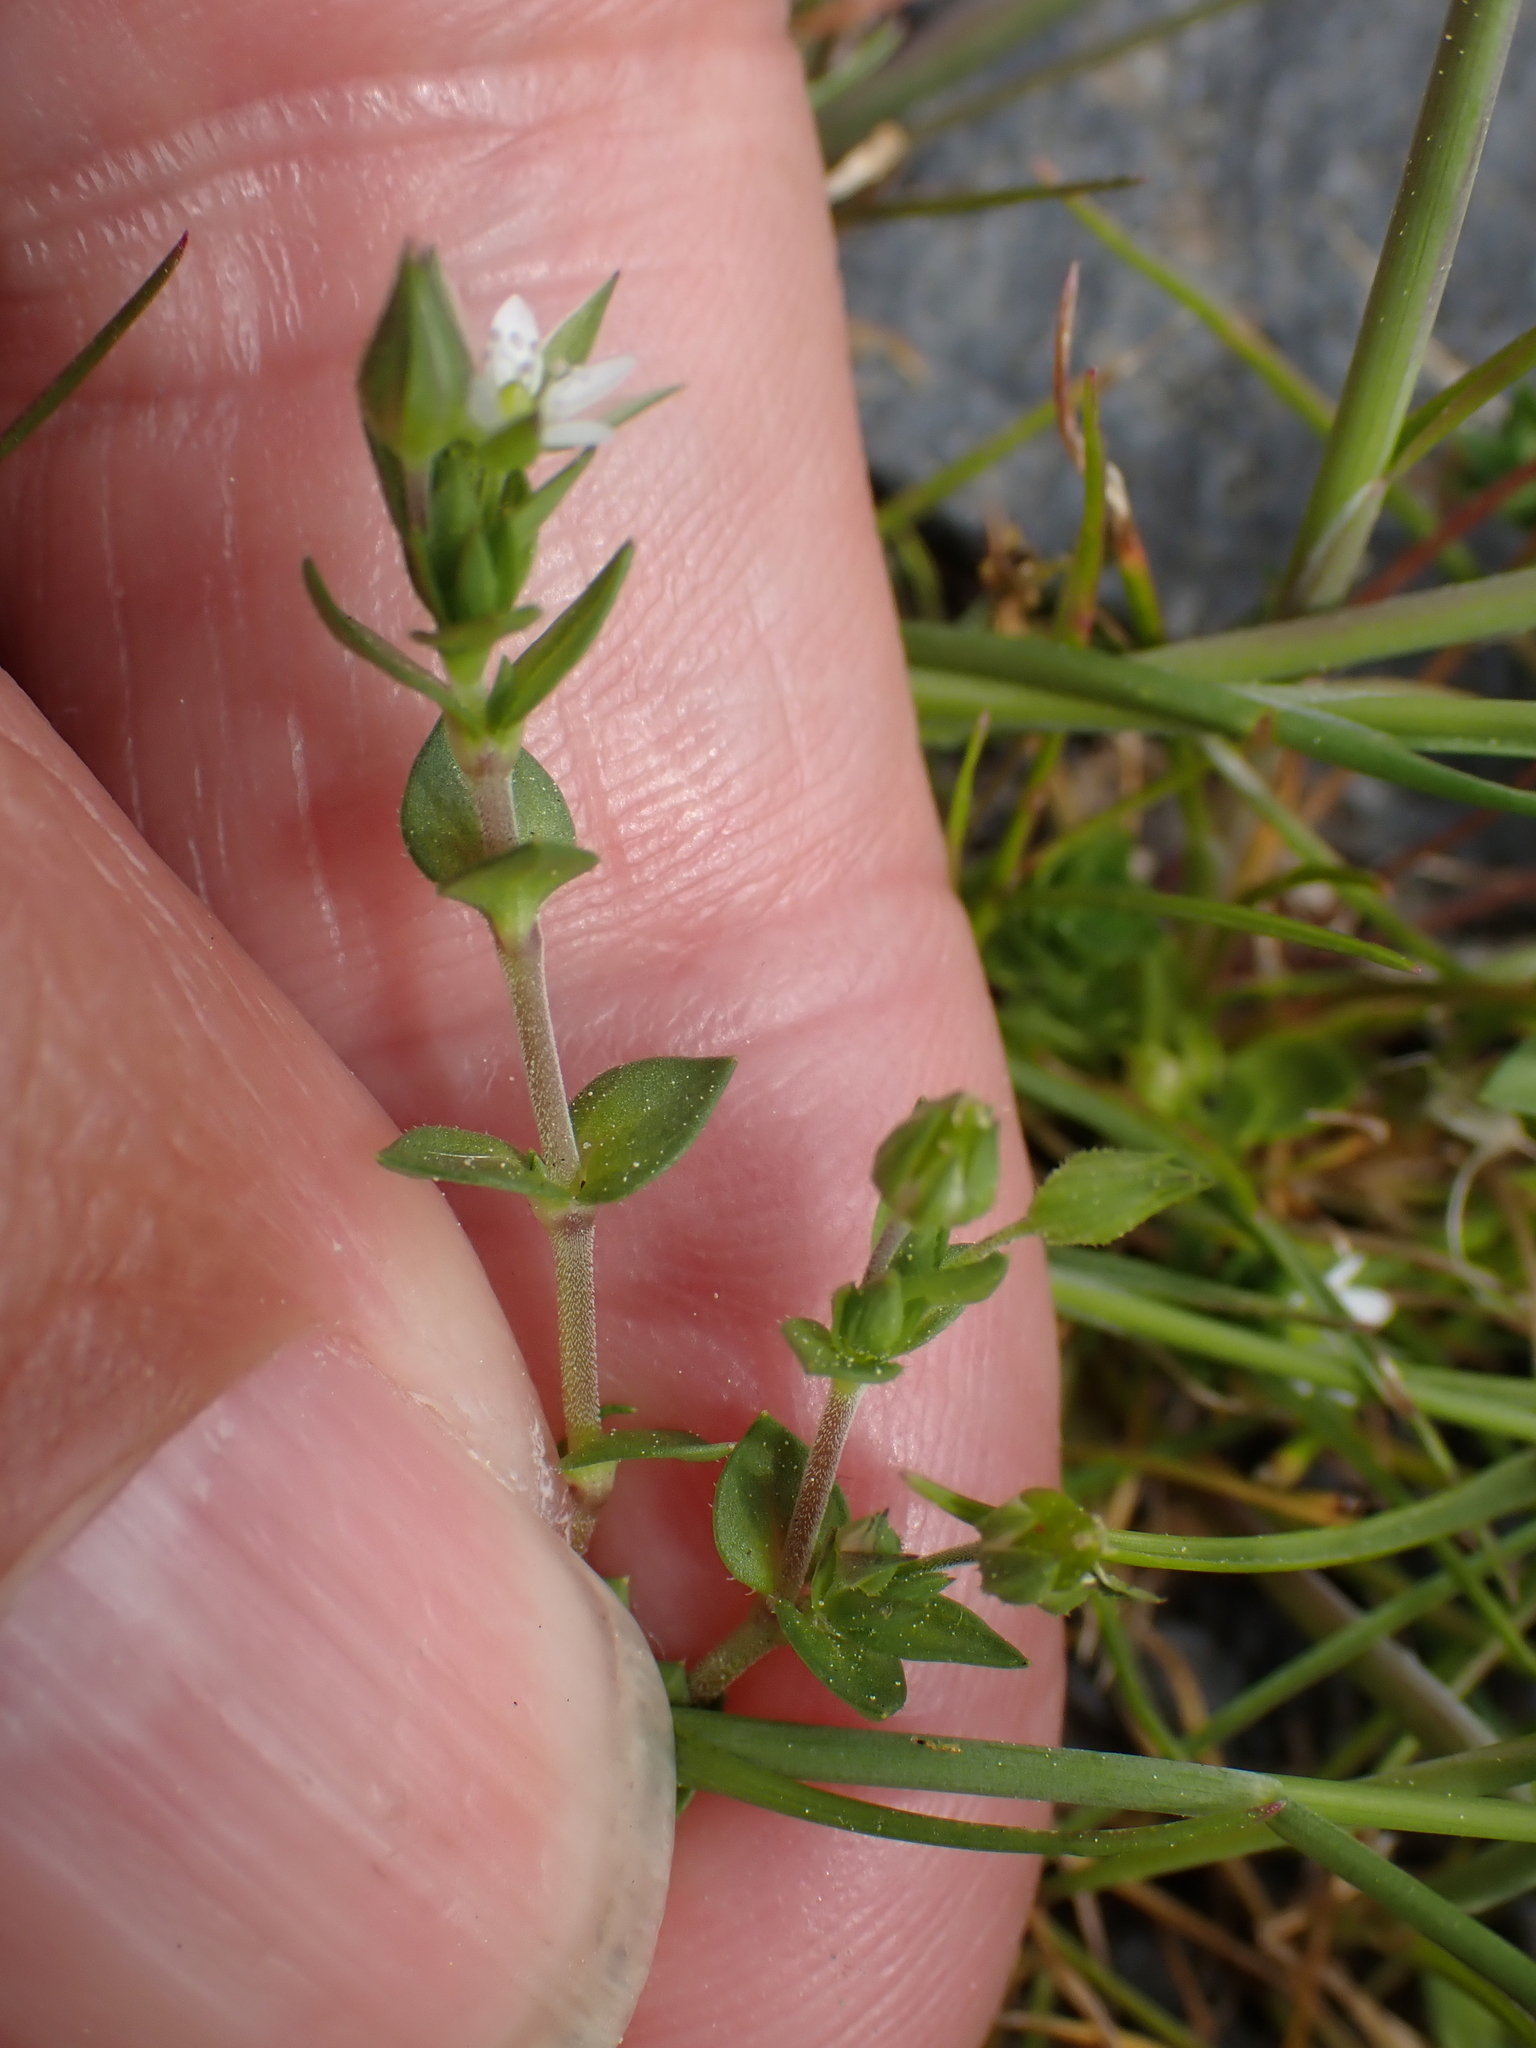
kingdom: Plantae
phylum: Tracheophyta
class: Magnoliopsida
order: Caryophyllales
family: Caryophyllaceae
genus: Arenaria
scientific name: Arenaria serpyllifolia
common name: Thyme-leaved sandwort
